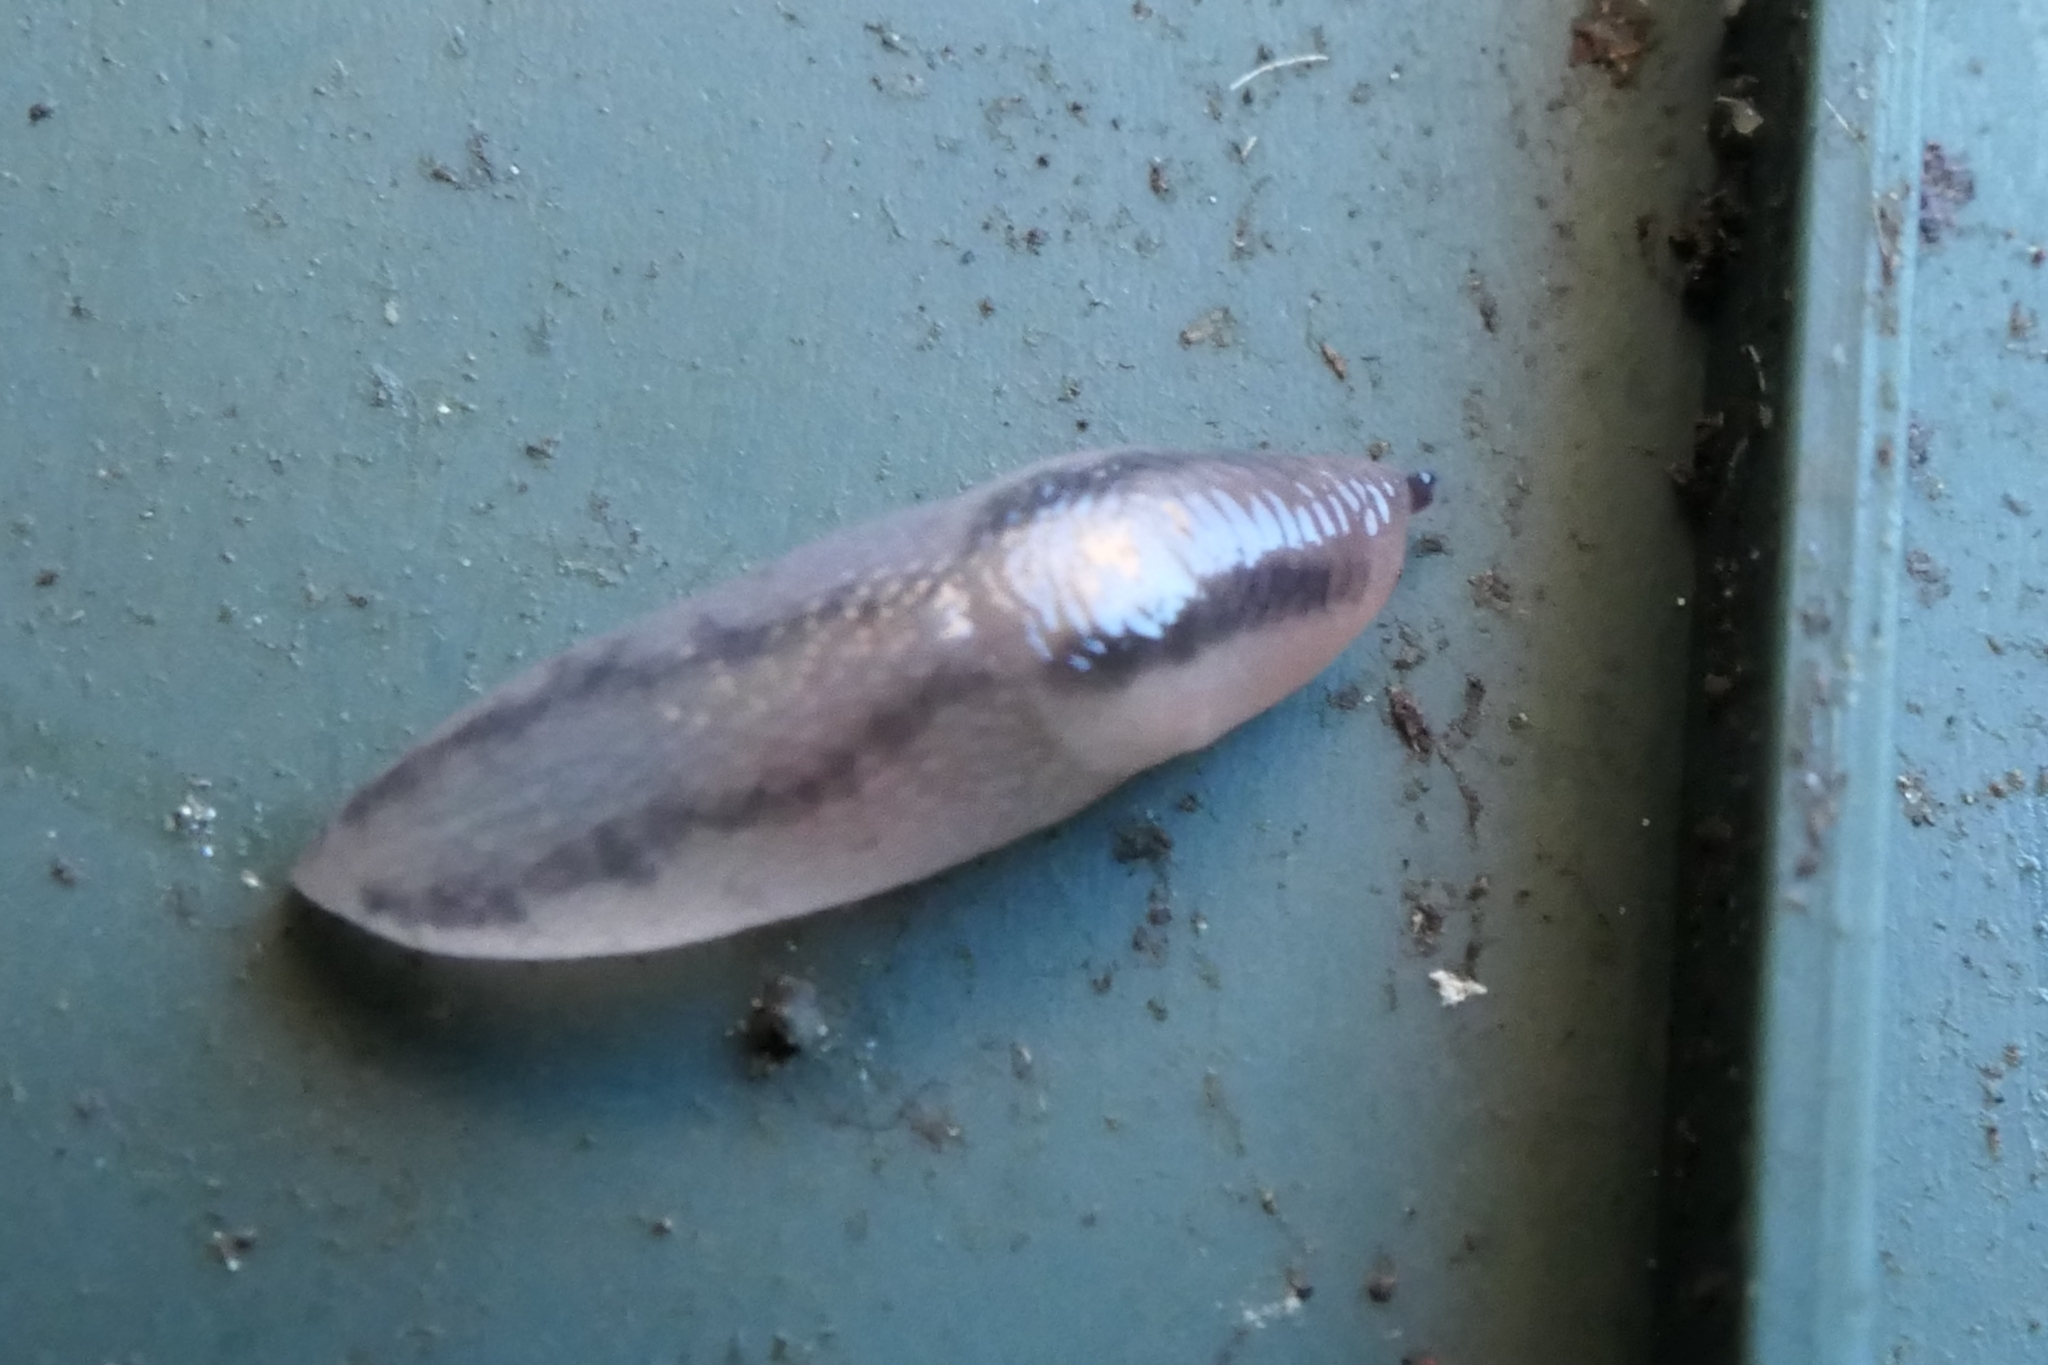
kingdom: Animalia
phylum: Mollusca
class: Gastropoda
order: Stylommatophora
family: Limacidae
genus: Ambigolimax
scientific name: Ambigolimax
